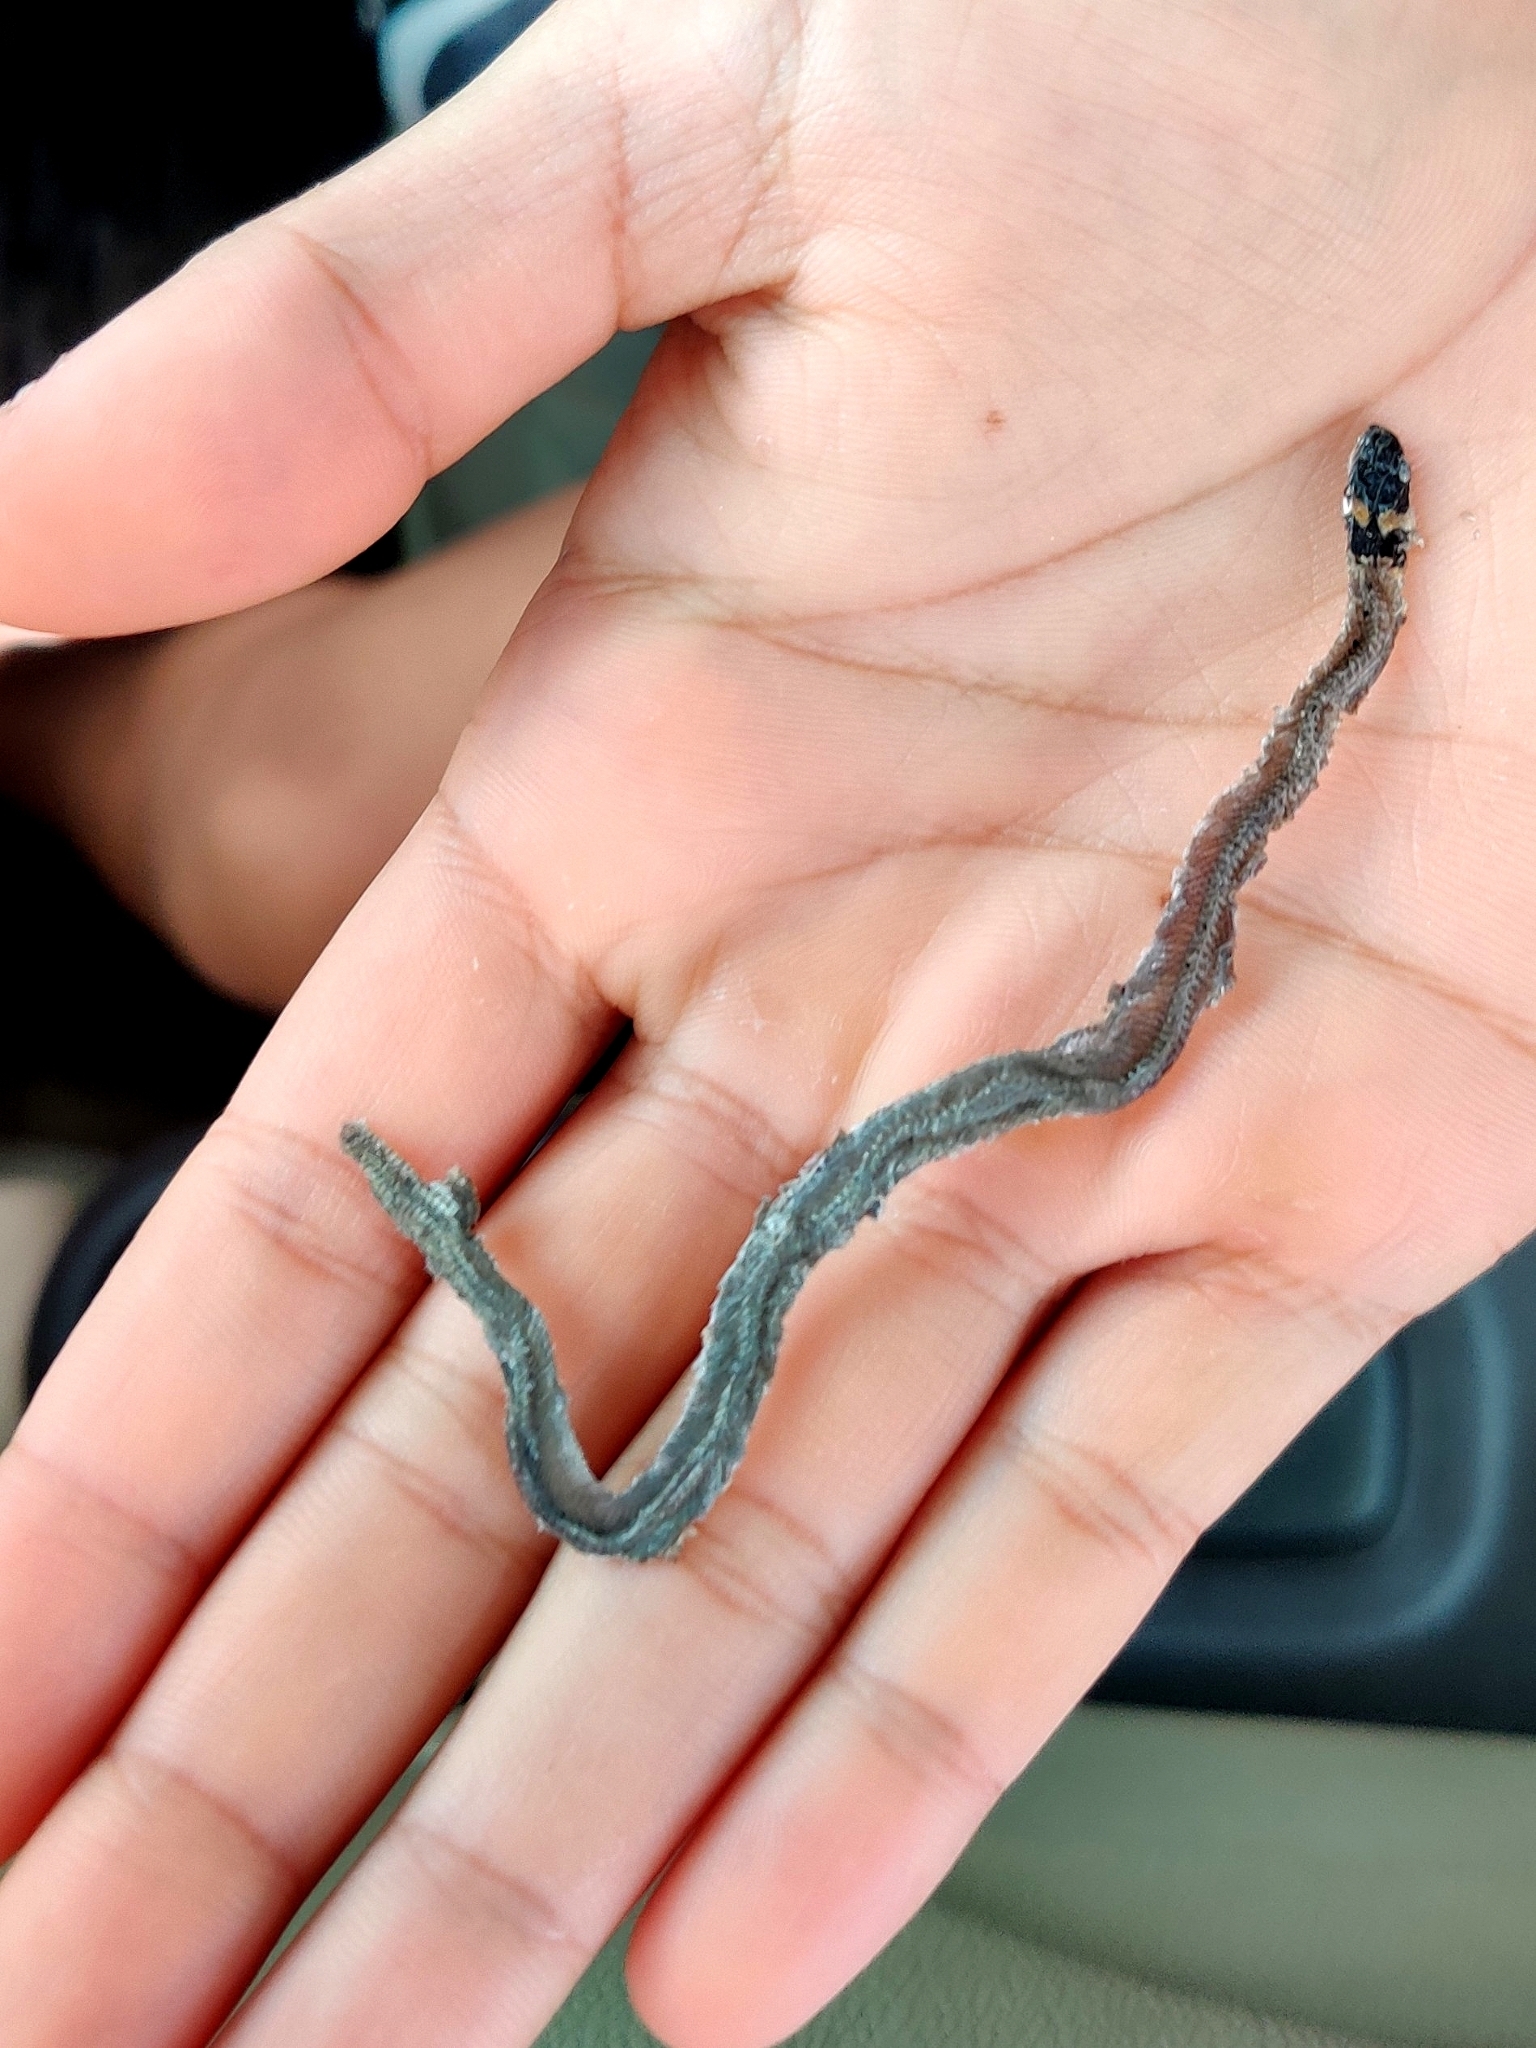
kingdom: Animalia
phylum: Chordata
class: Squamata
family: Colubridae
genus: Sibynophis
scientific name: Sibynophis subpunctatus
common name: Black-headed snake
